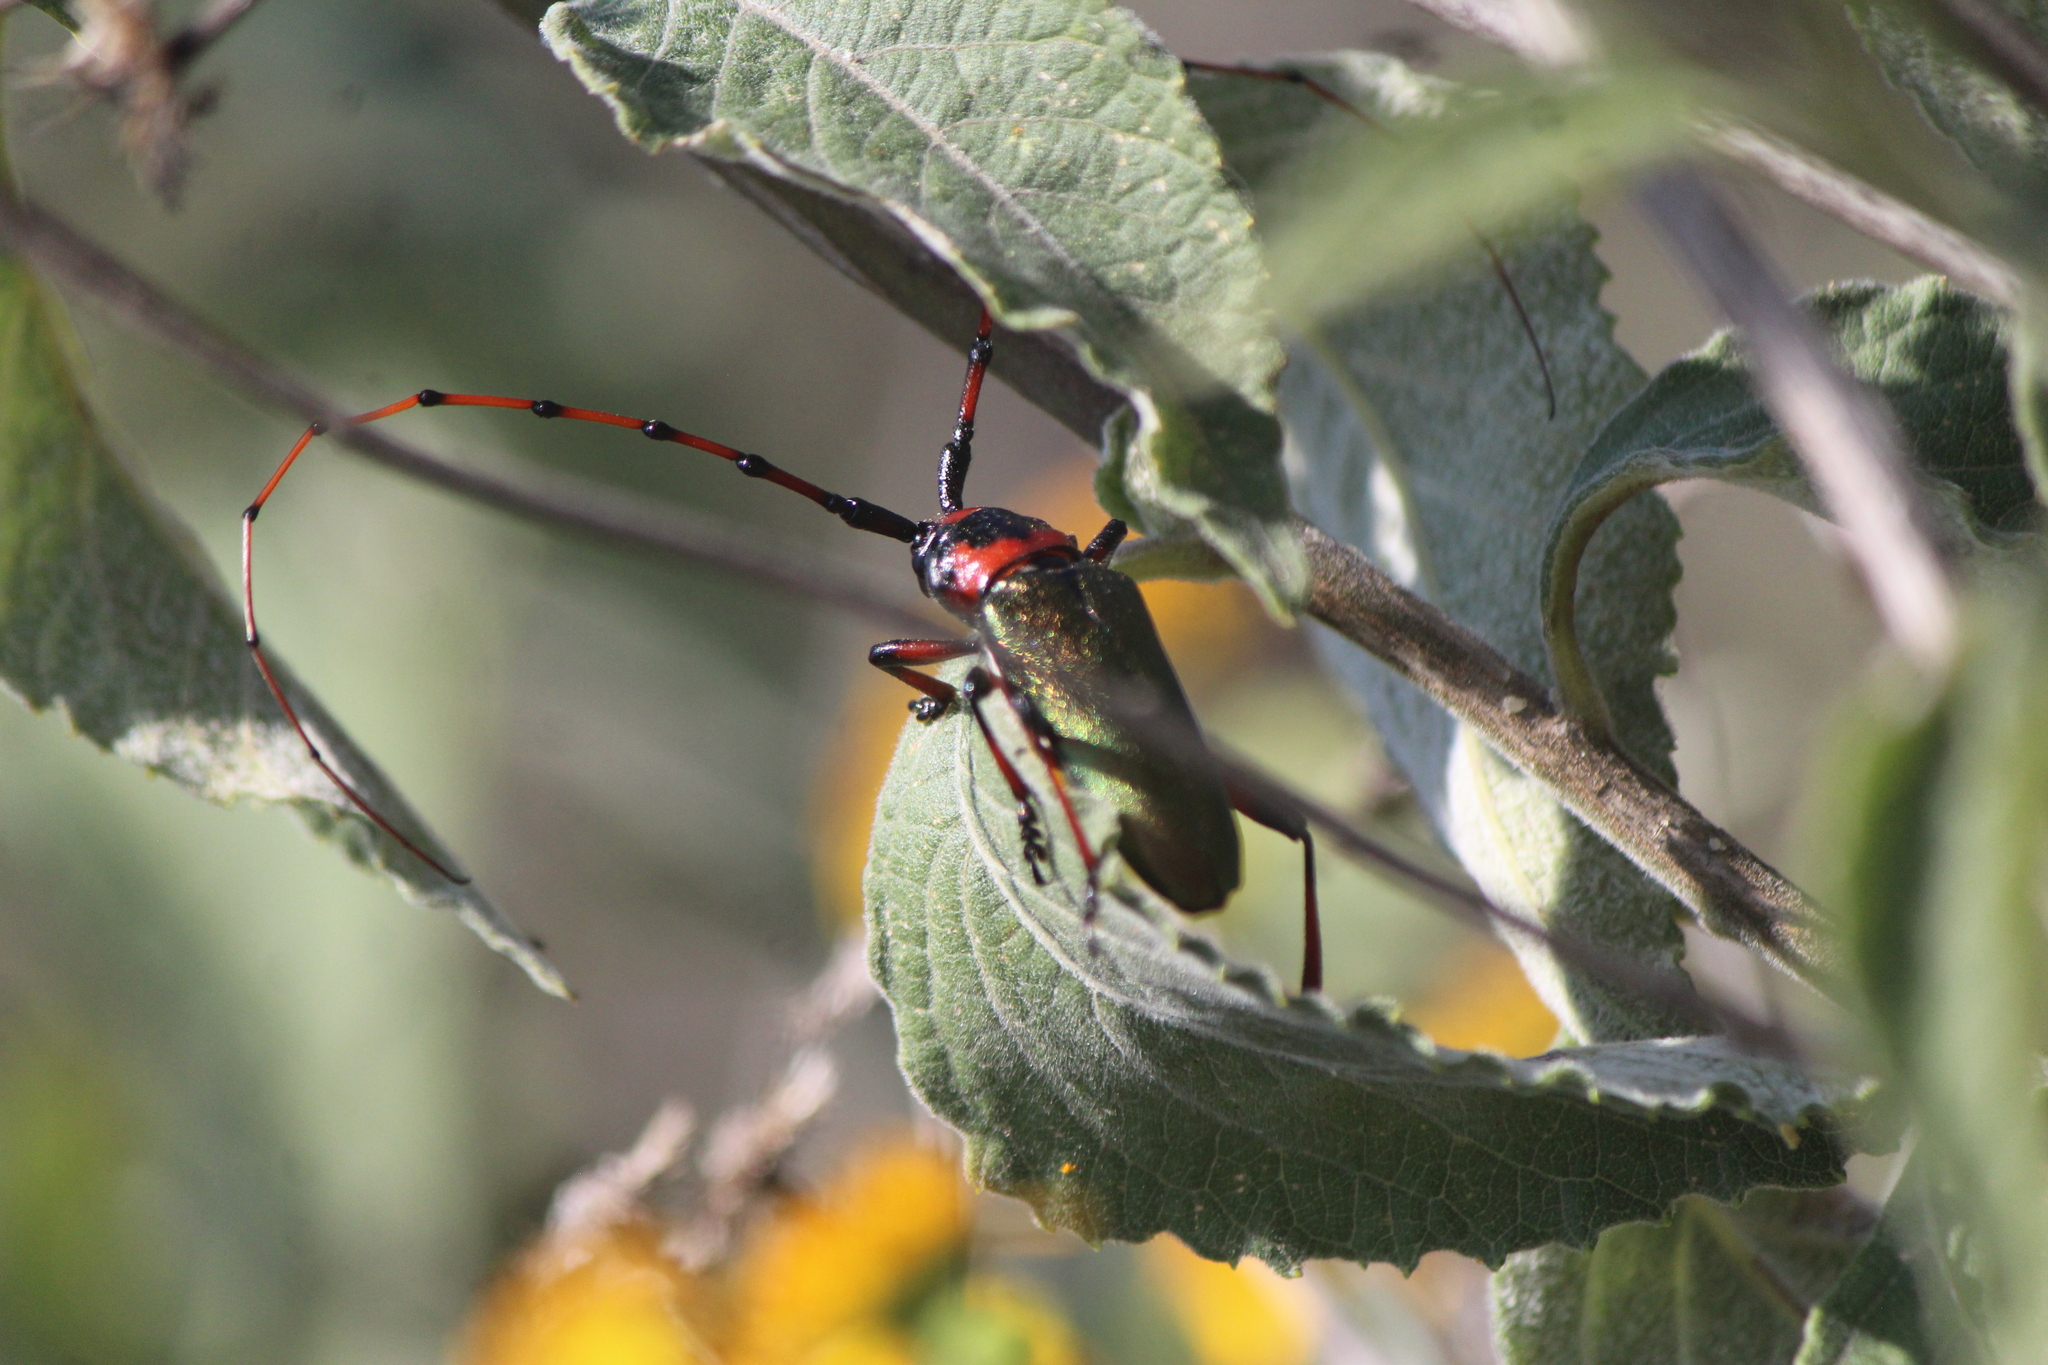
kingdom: Animalia
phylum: Arthropoda
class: Insecta
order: Coleoptera
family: Cerambycidae
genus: Stenaspis
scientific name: Stenaspis verticalis
